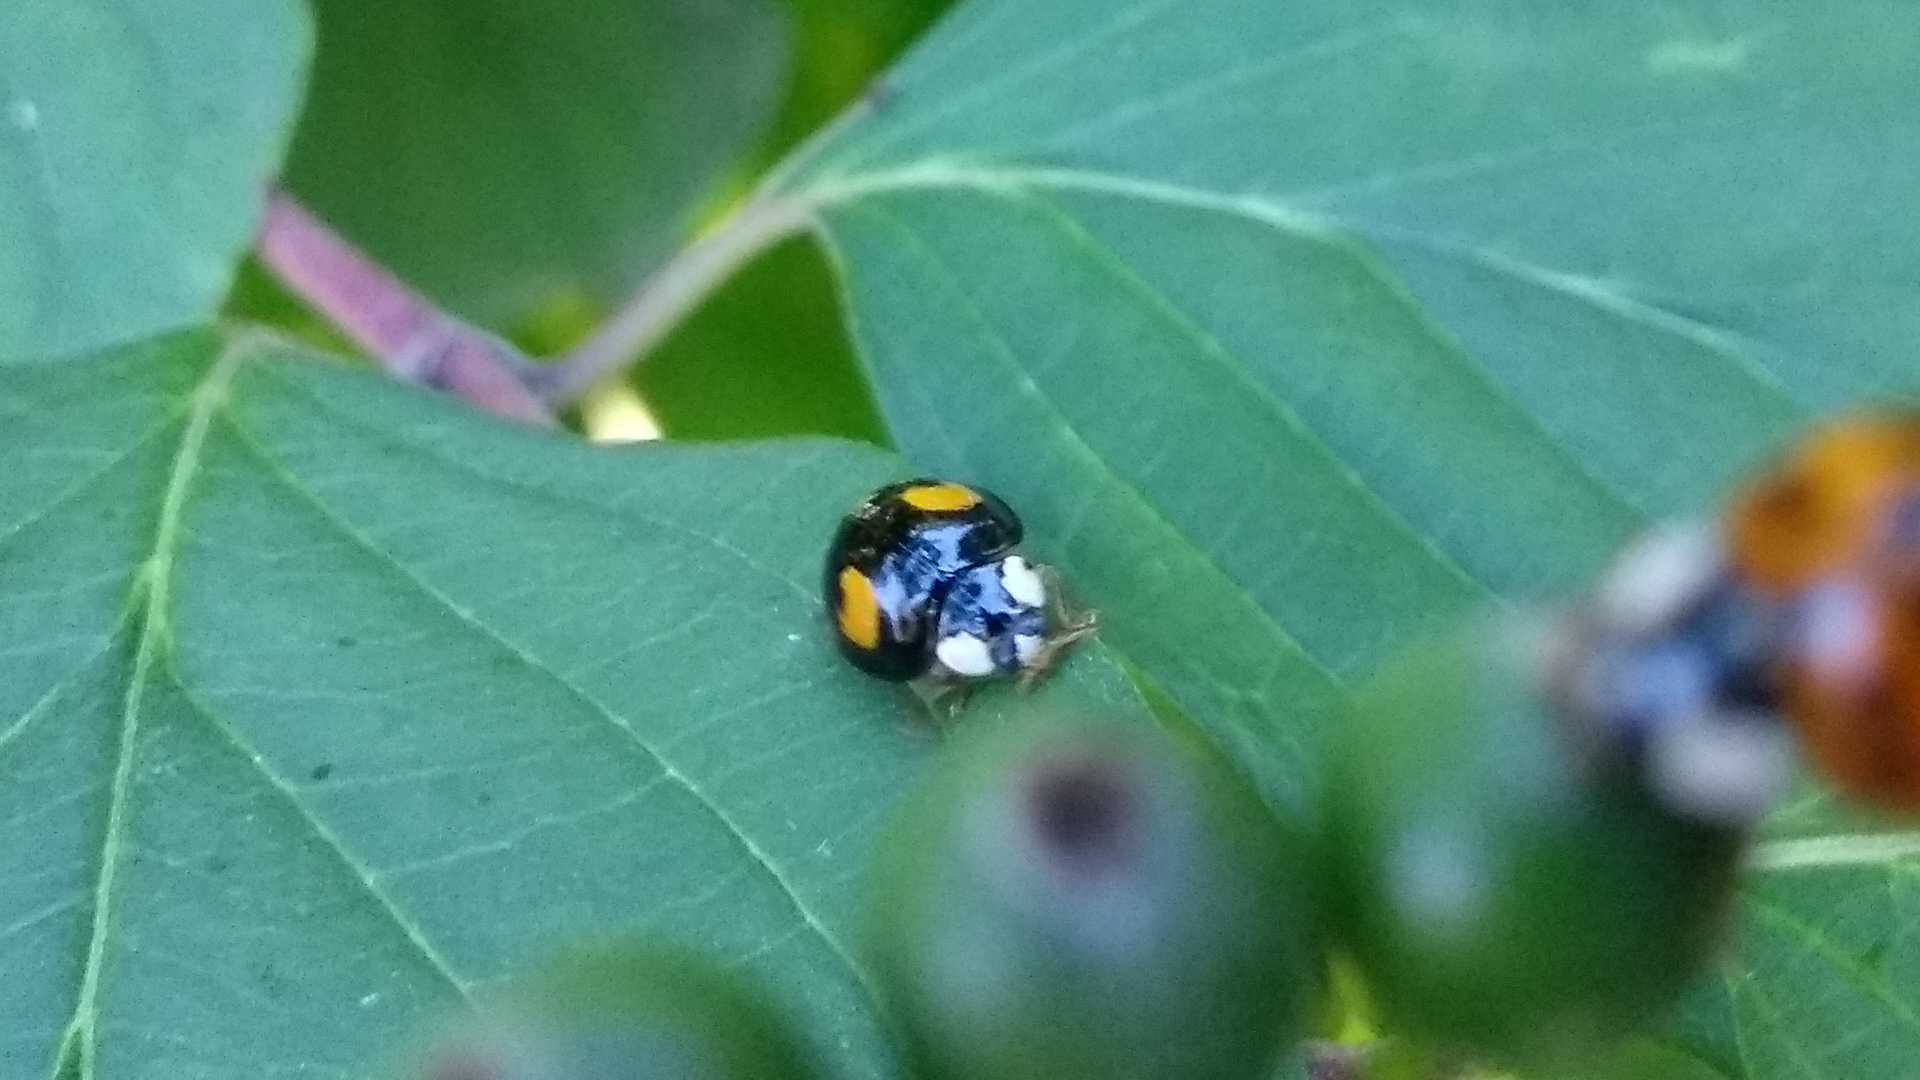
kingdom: Animalia
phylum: Arthropoda
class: Insecta
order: Coleoptera
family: Coccinellidae
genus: Harmonia
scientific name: Harmonia axyridis
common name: Harlequin ladybird
